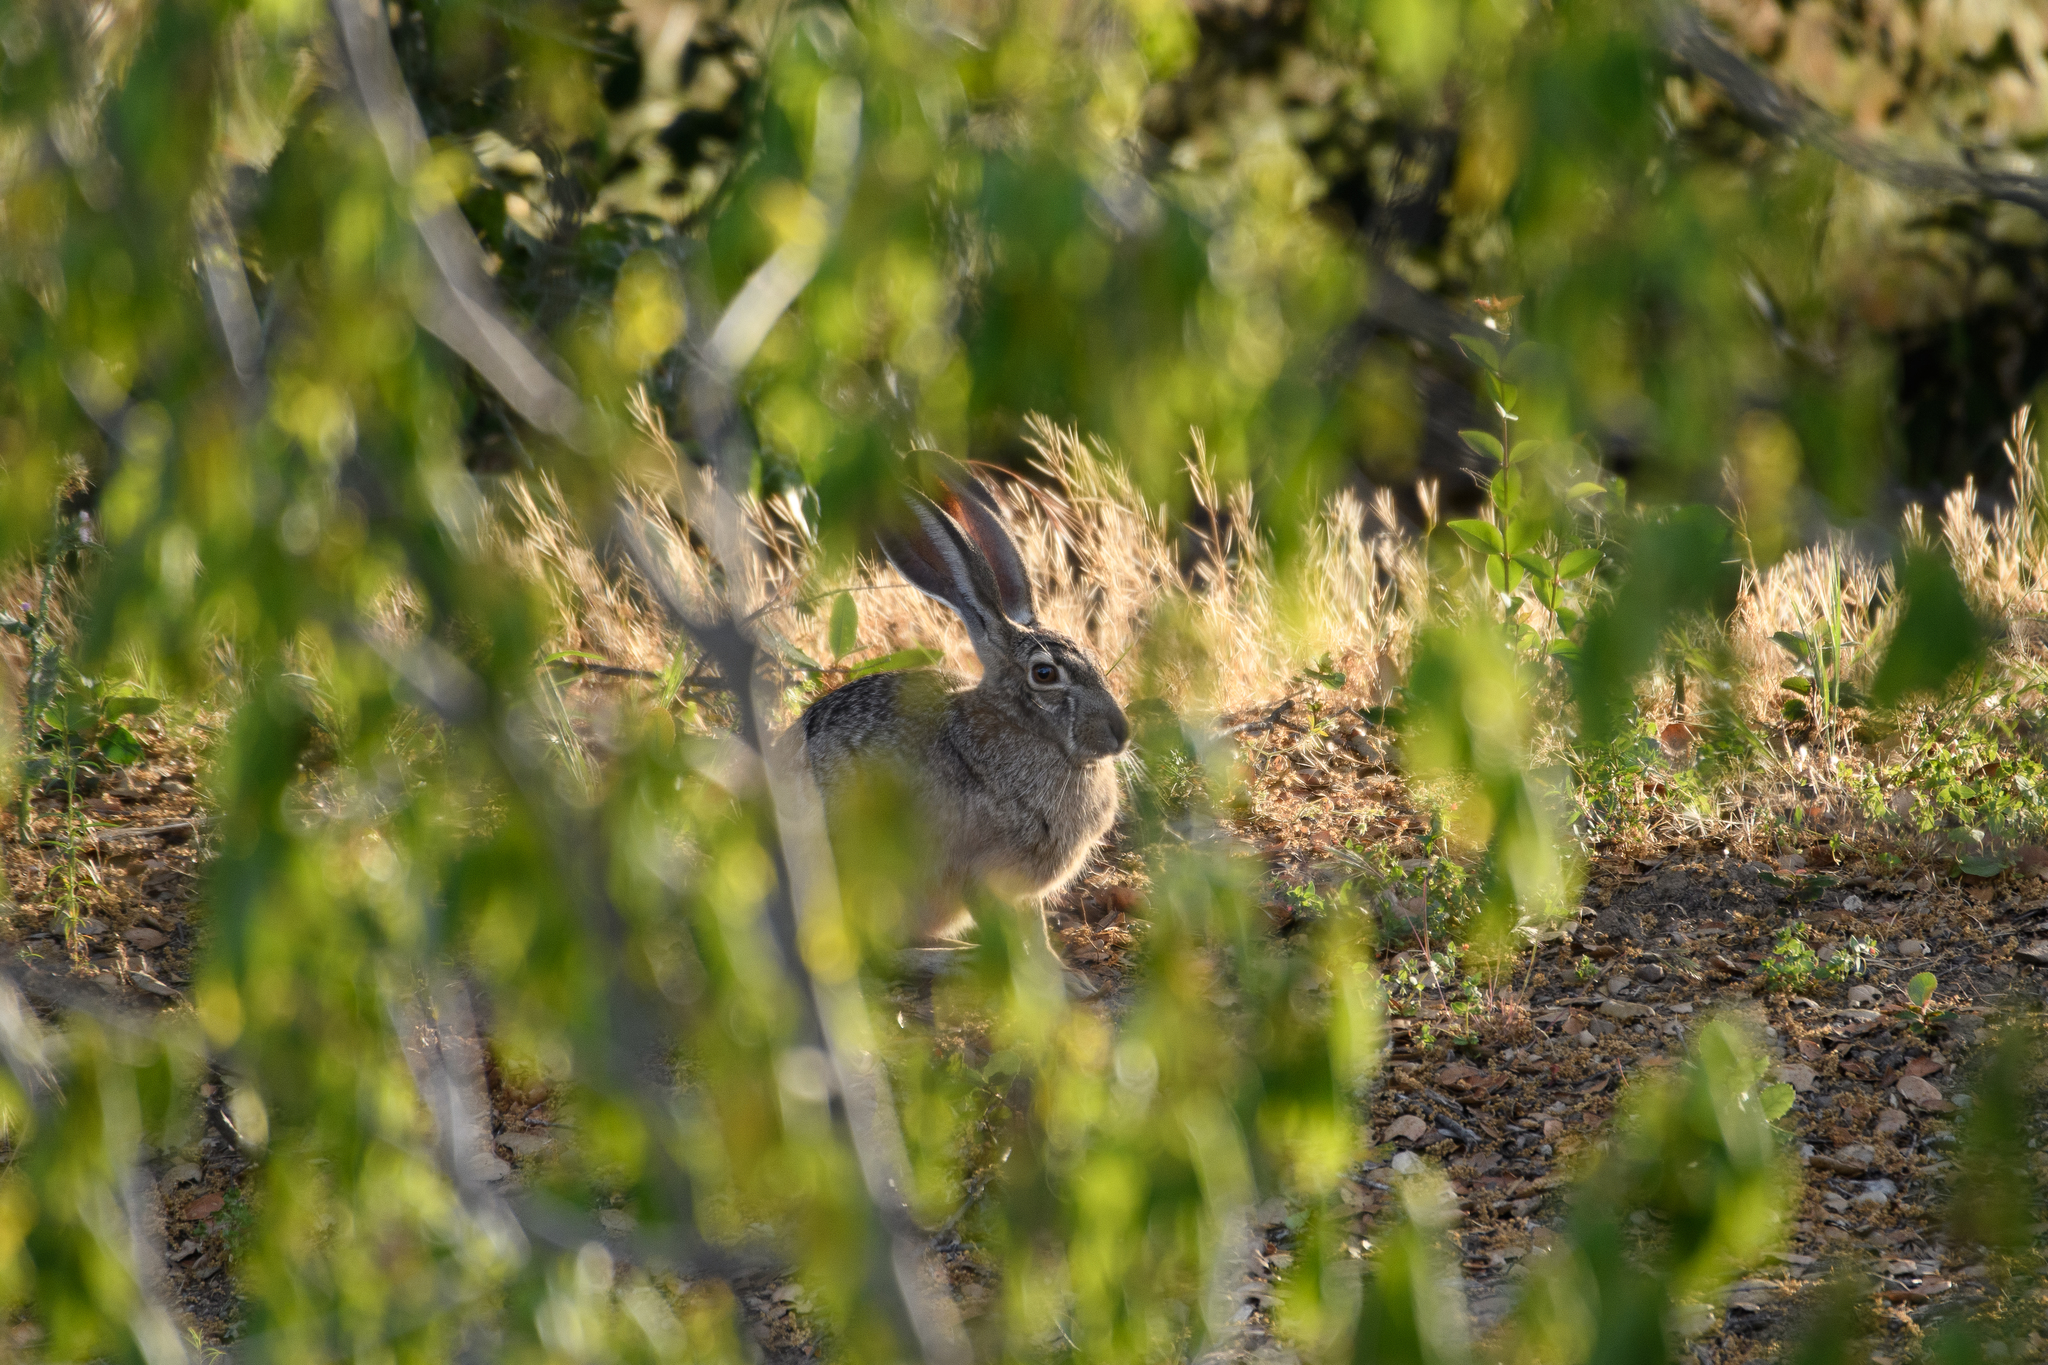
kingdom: Animalia
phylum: Chordata
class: Mammalia
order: Lagomorpha
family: Leporidae
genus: Lepus
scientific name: Lepus californicus
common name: Black-tailed jackrabbit
